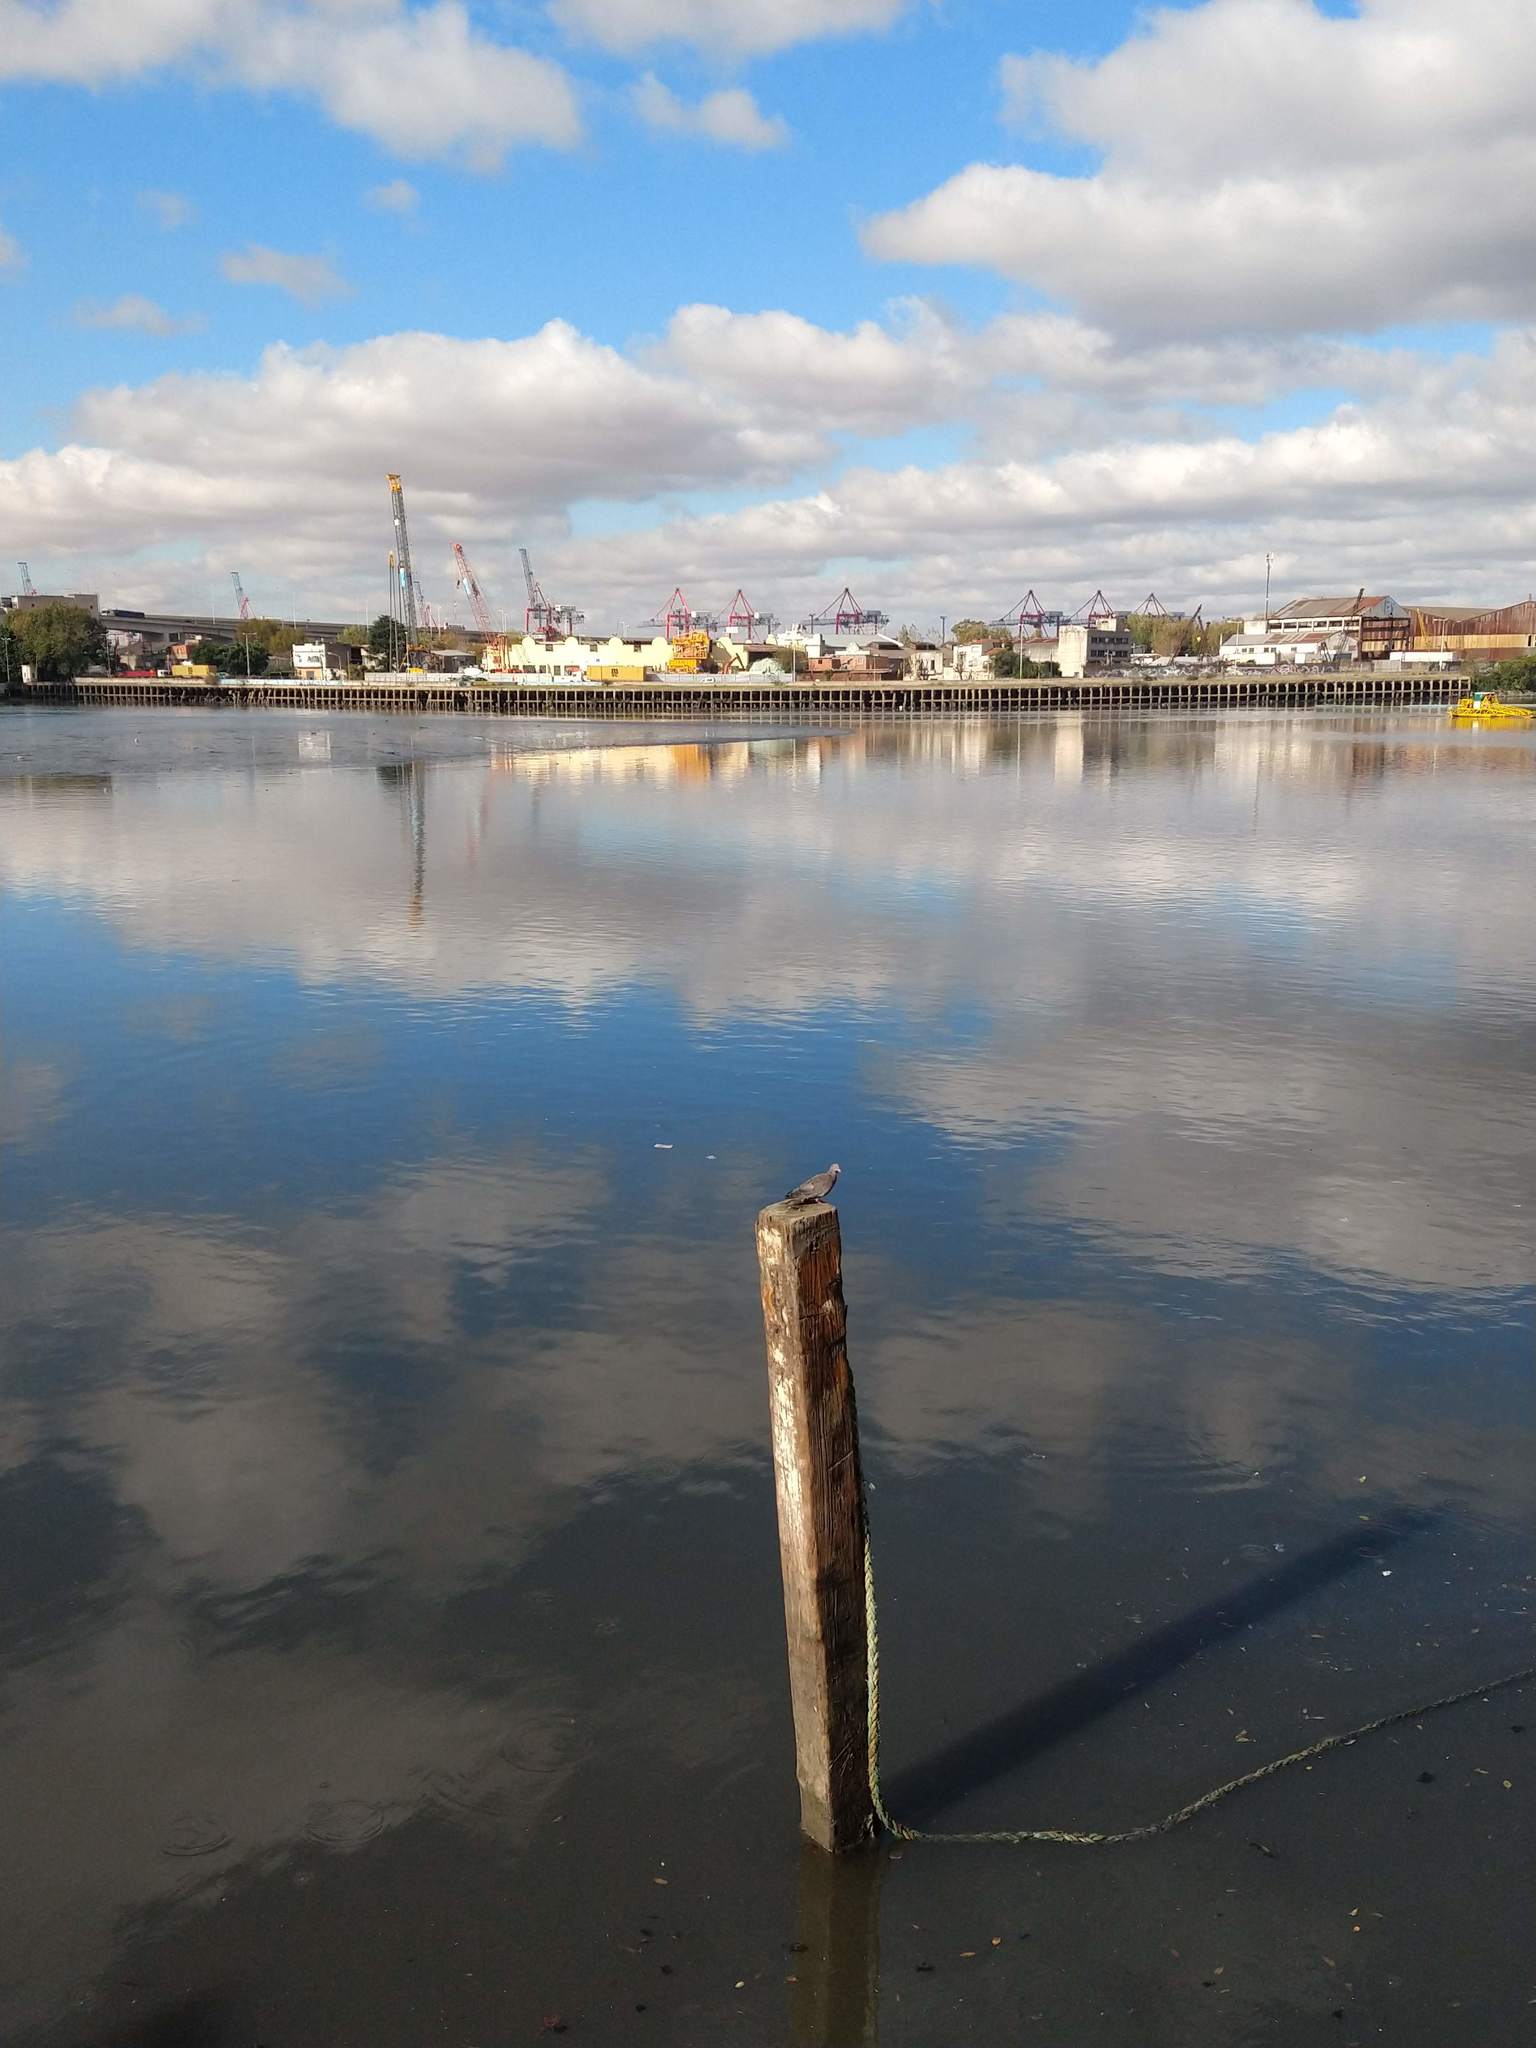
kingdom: Animalia
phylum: Chordata
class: Aves
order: Columbiformes
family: Columbidae
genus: Patagioenas
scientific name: Patagioenas picazuro
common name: Picazuro pigeon
